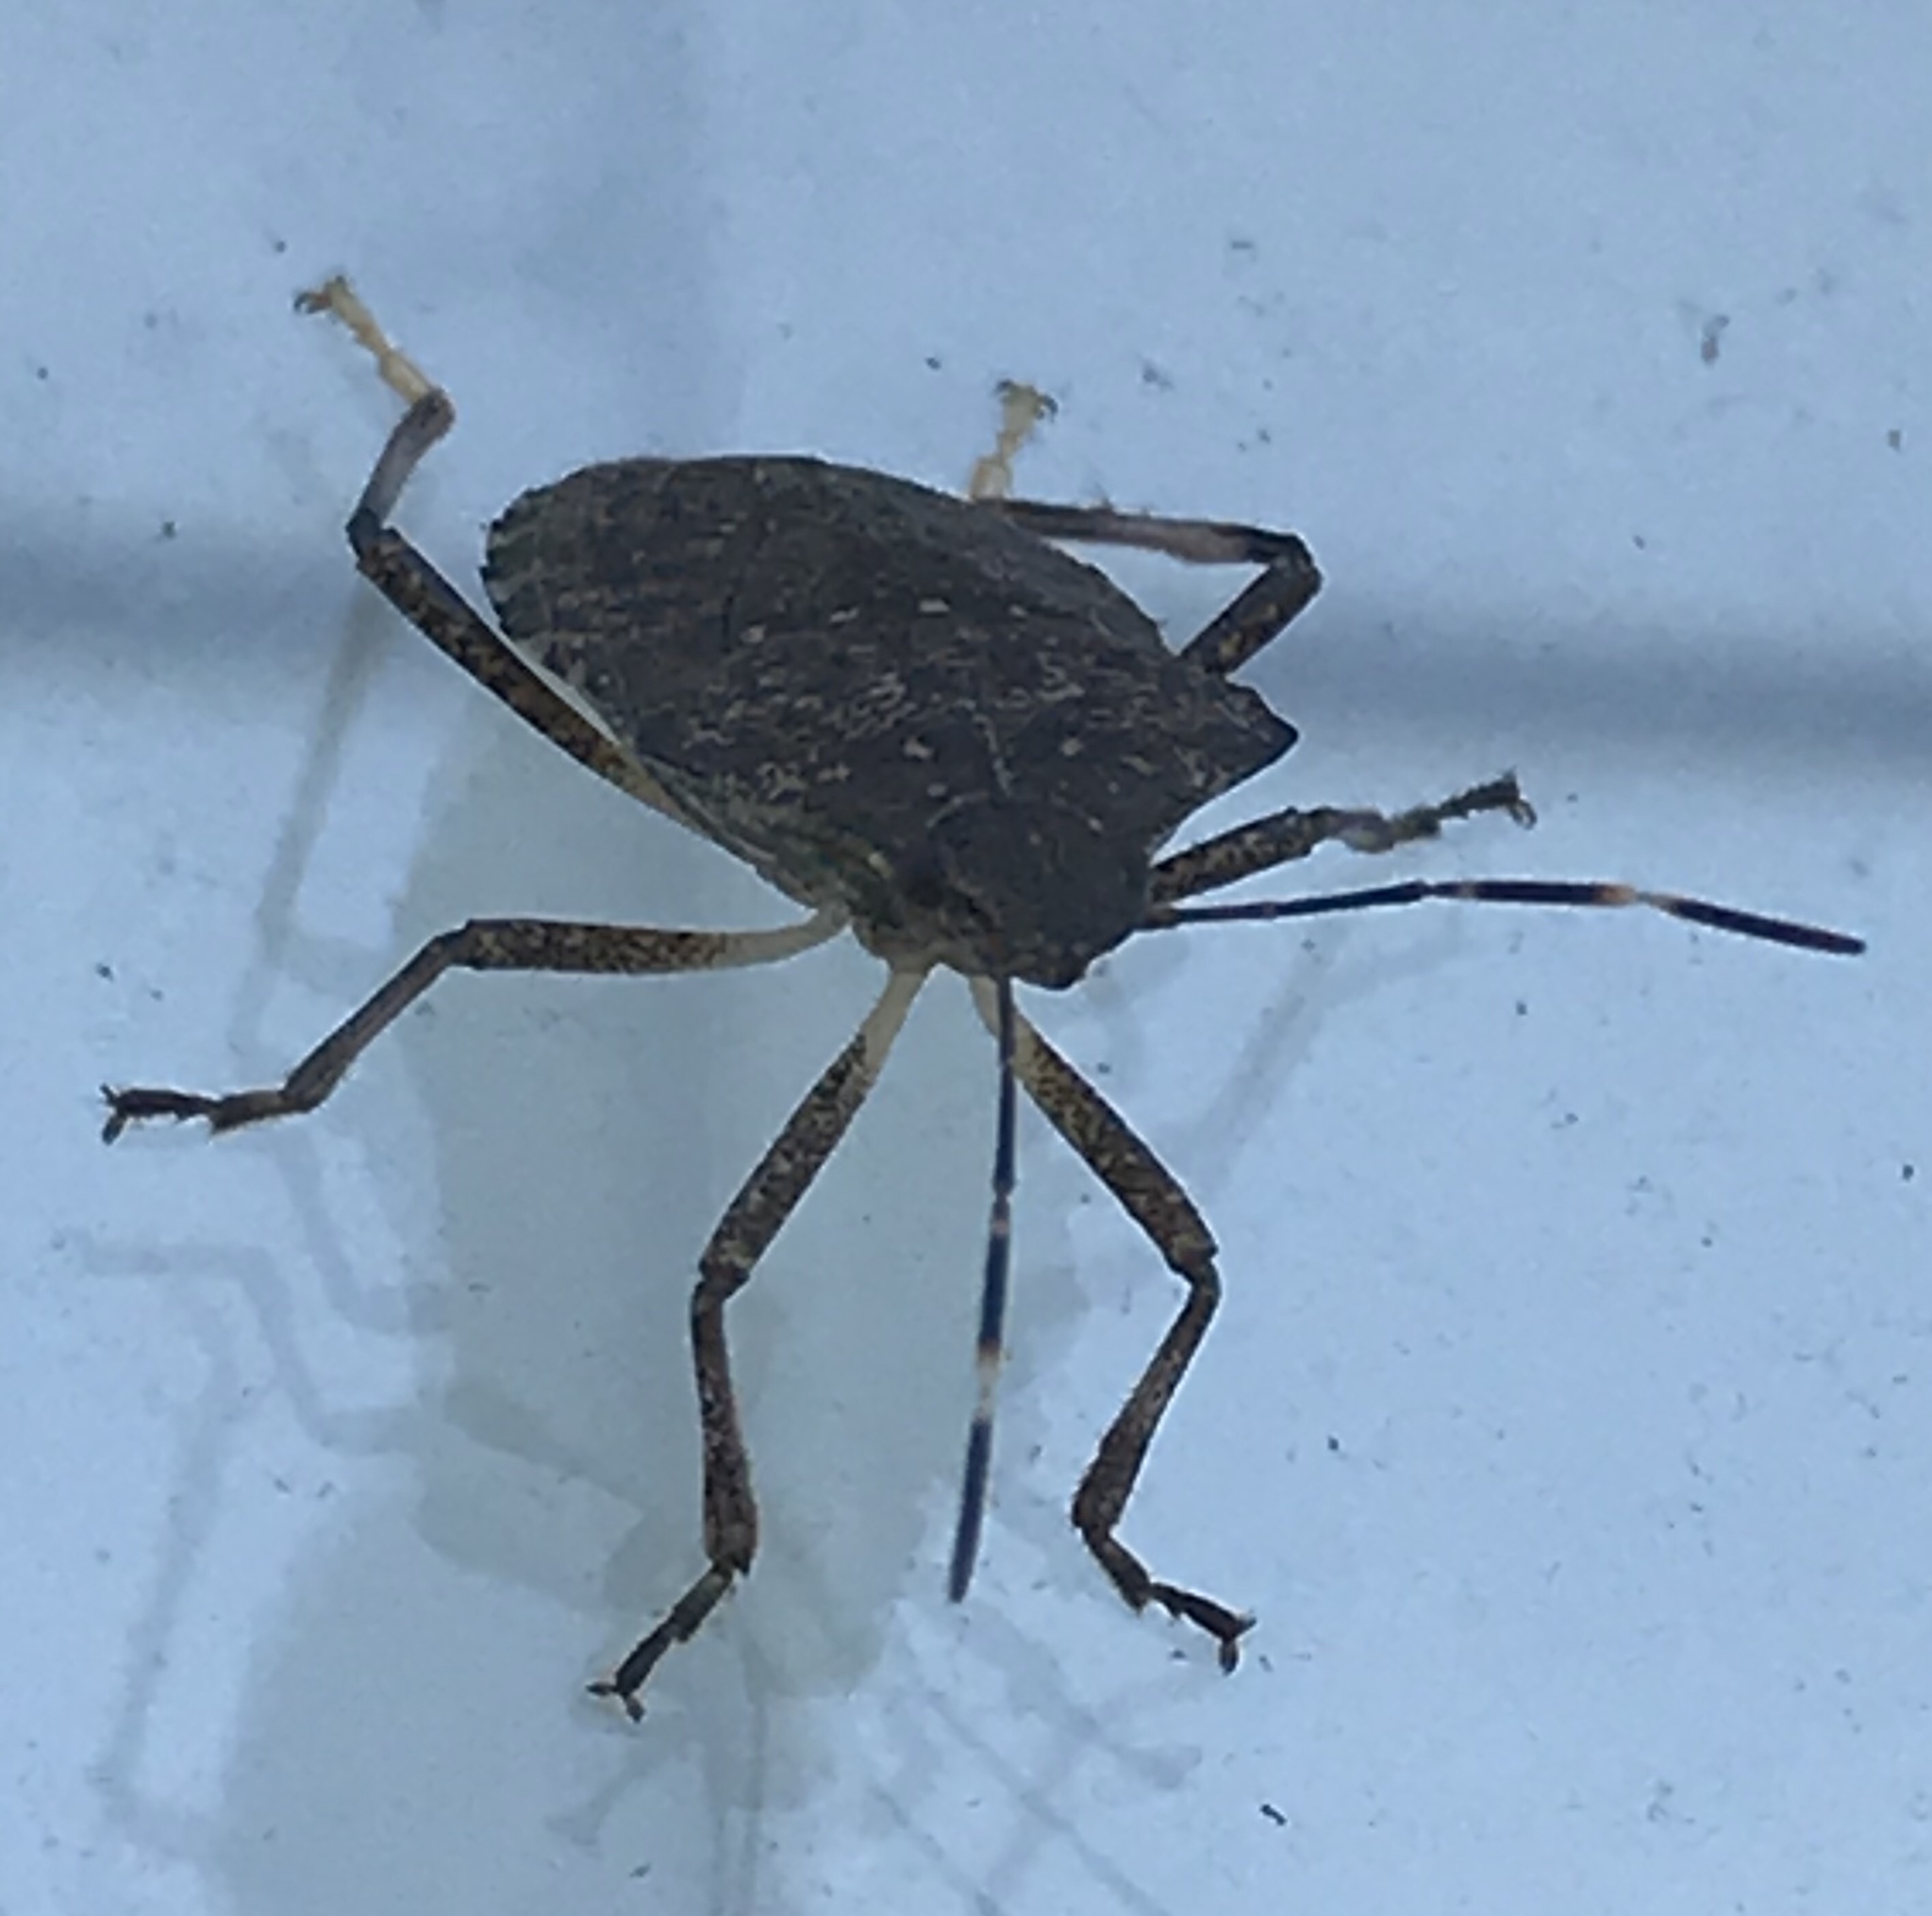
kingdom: Animalia
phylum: Arthropoda
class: Insecta
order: Hemiptera
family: Pentatomidae
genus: Halyomorpha
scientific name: Halyomorpha halys
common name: Brown marmorated stink bug
